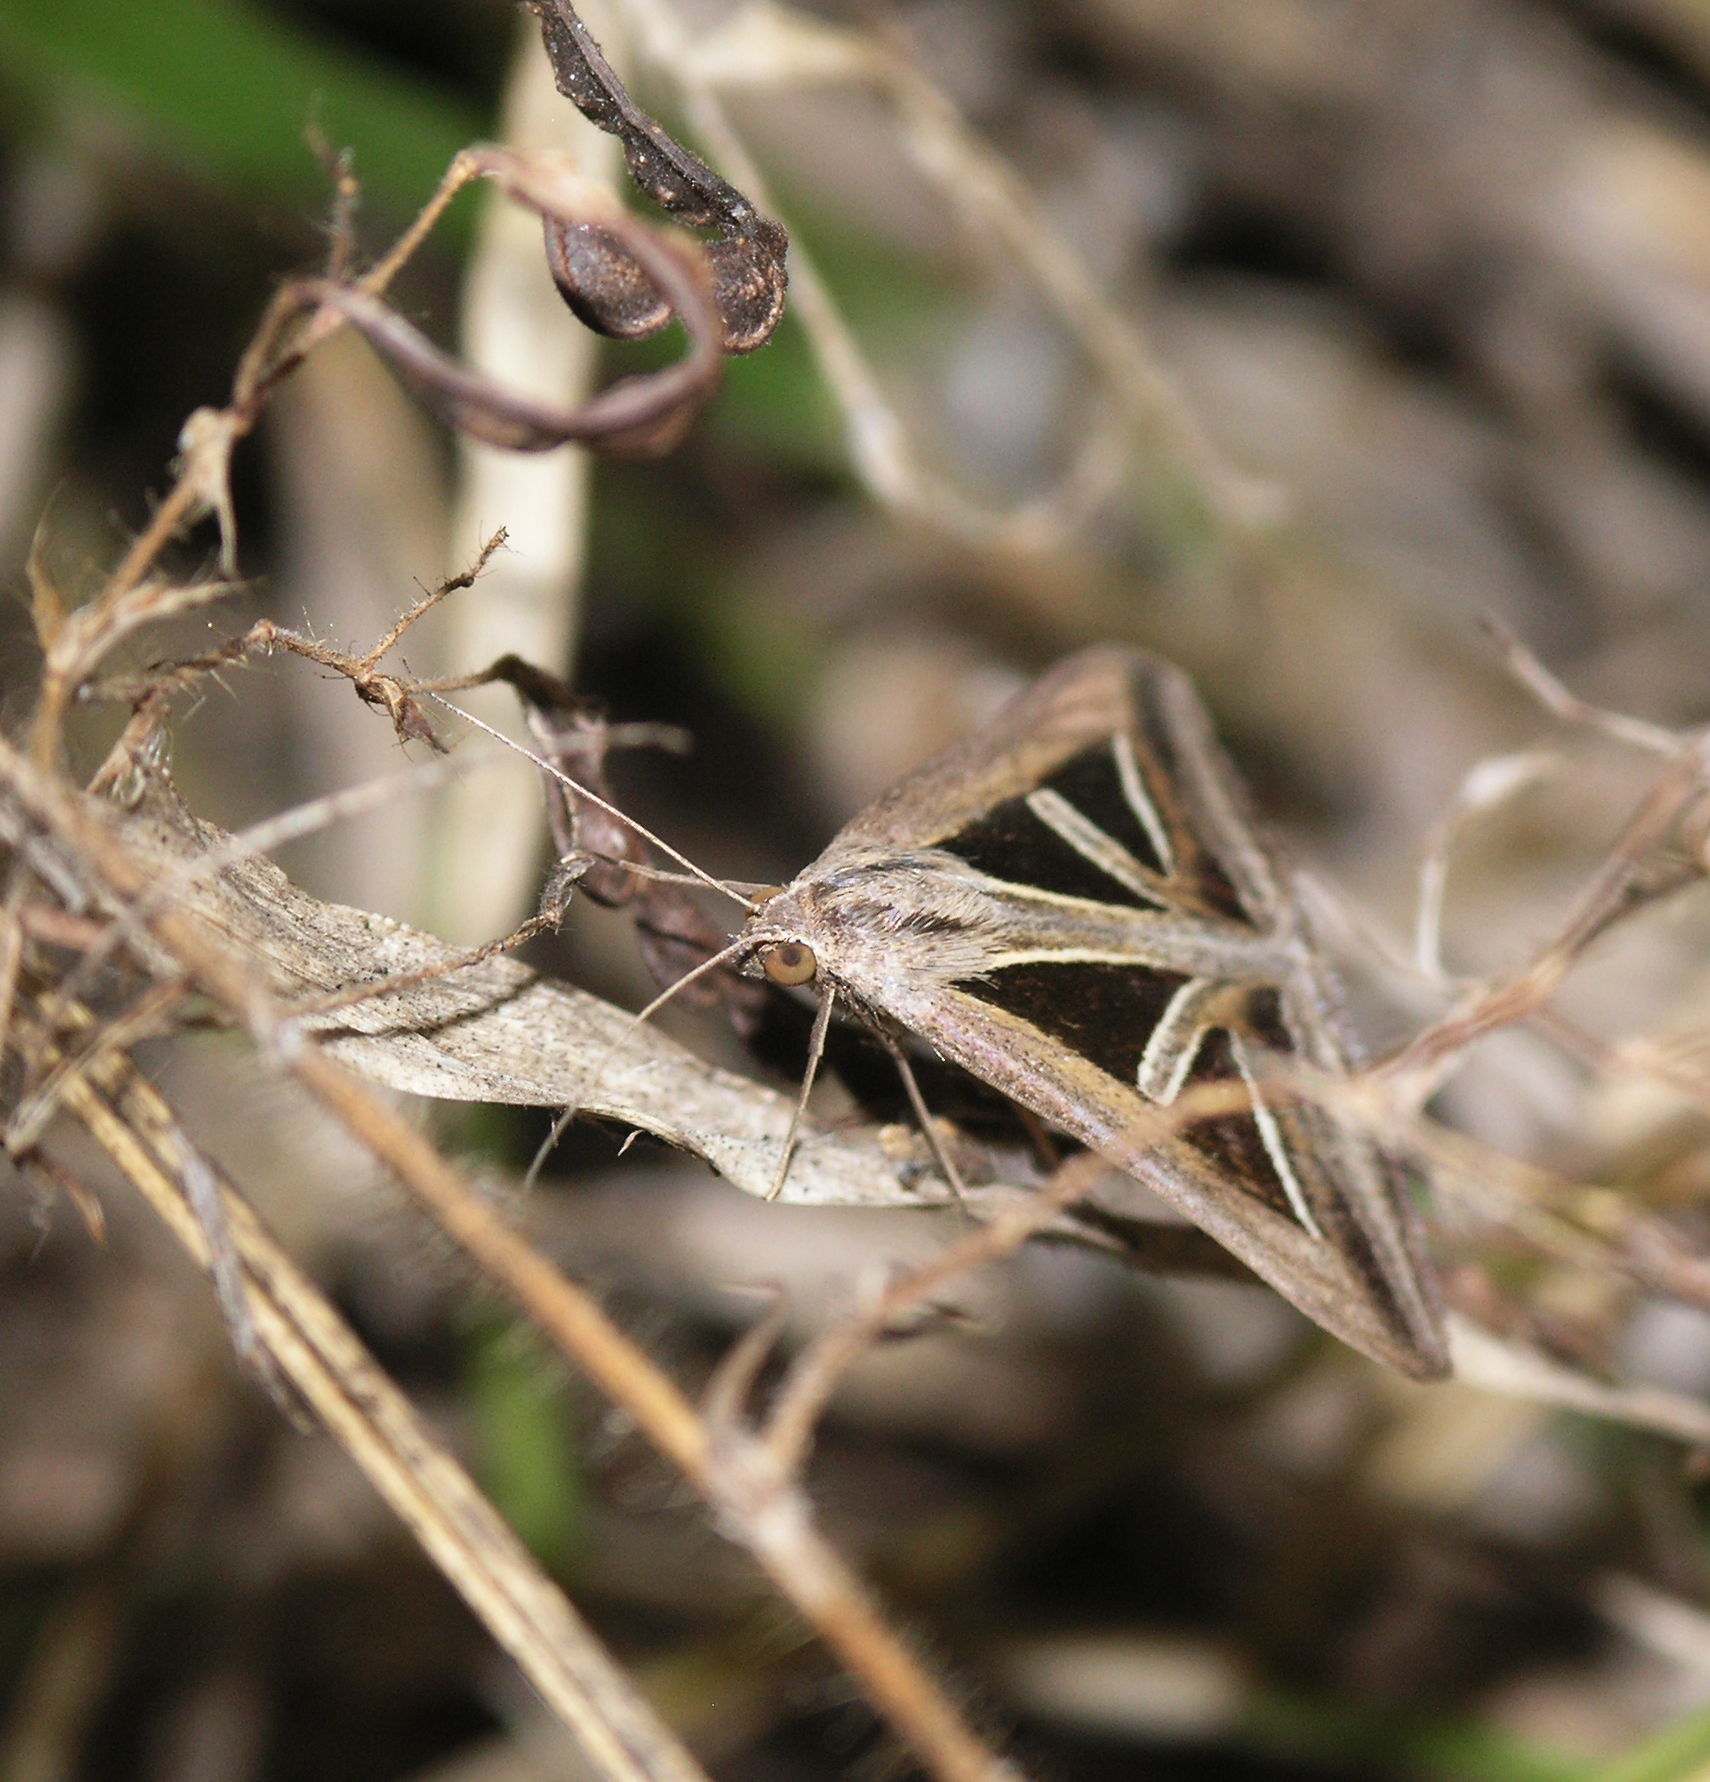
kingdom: Animalia
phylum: Arthropoda
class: Insecta
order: Lepidoptera
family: Erebidae
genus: Trigonodes
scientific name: Trigonodes hyppasia
